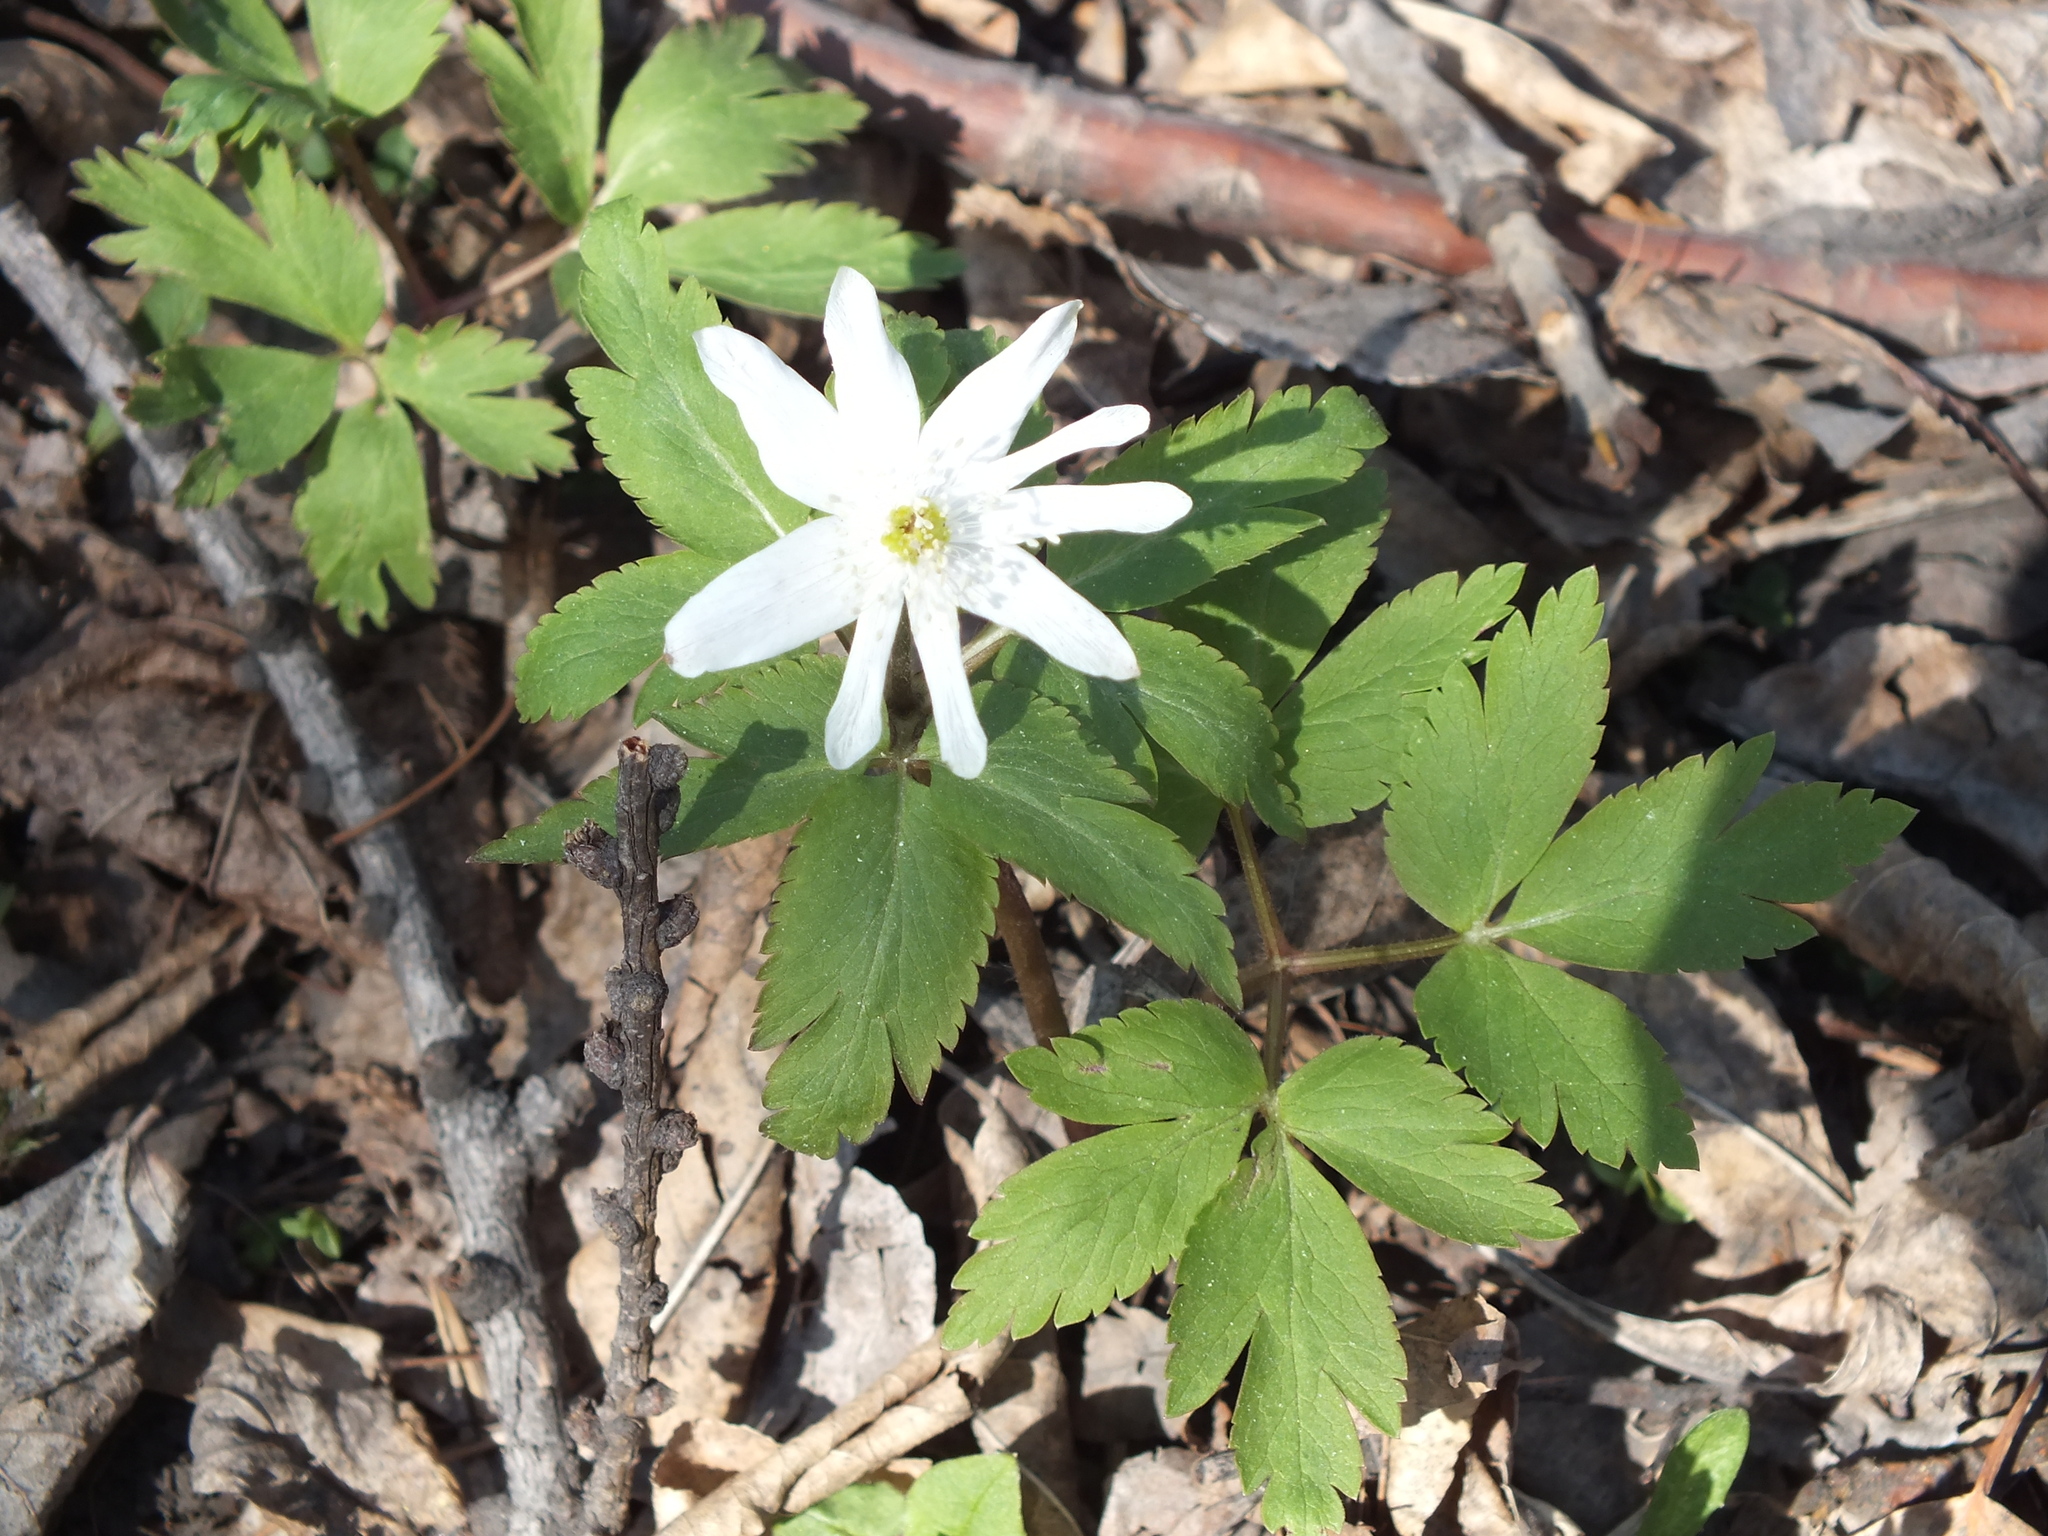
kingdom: Plantae
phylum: Tracheophyta
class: Magnoliopsida
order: Ranunculales
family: Ranunculaceae
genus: Anemone
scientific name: Anemone altaica
